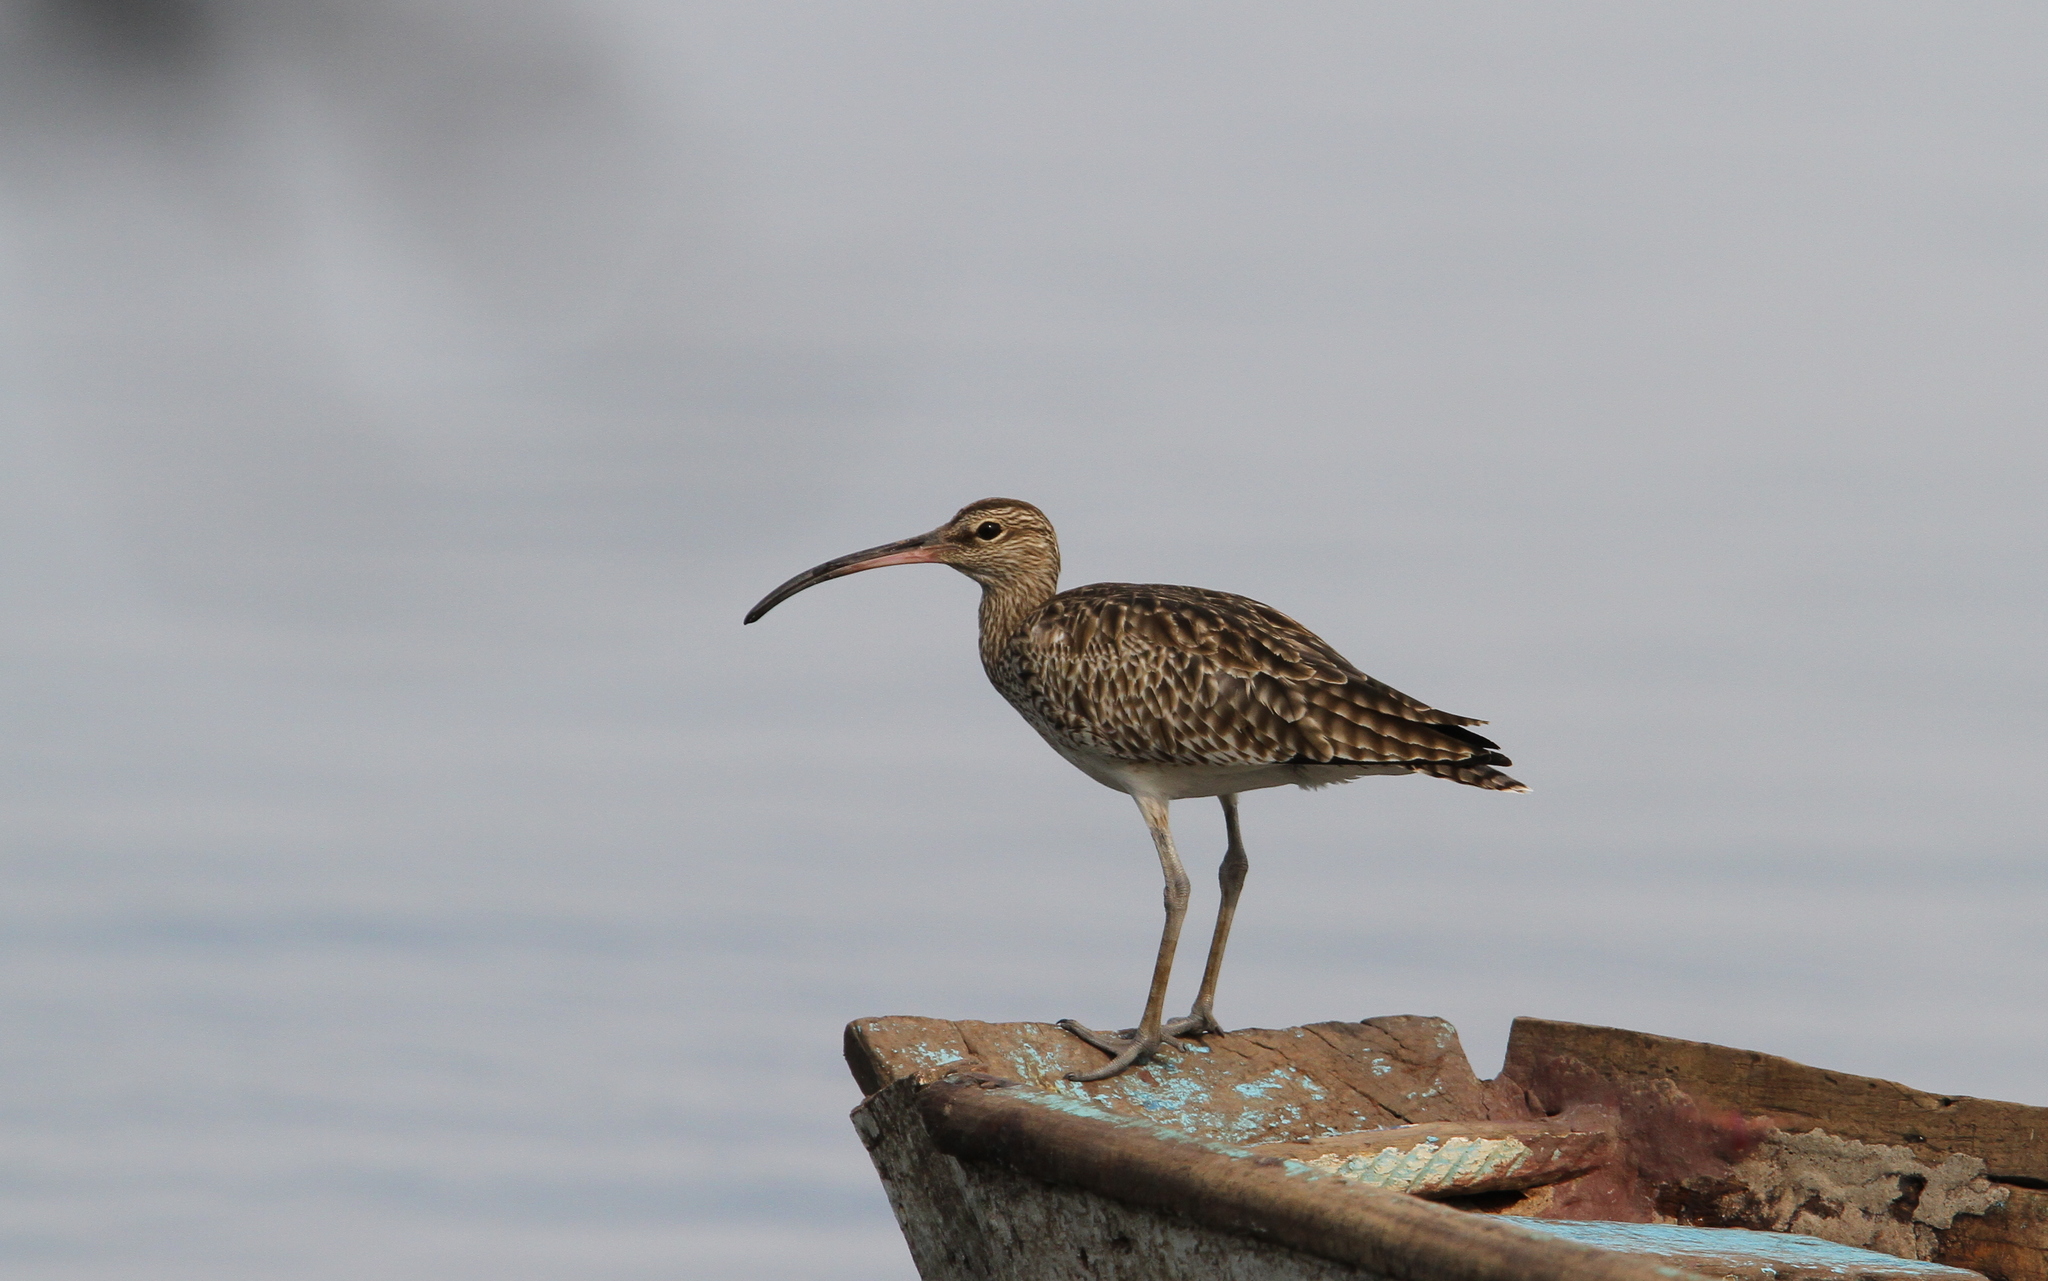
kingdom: Animalia
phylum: Chordata
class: Aves
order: Charadriiformes
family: Scolopacidae
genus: Numenius
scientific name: Numenius phaeopus
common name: Whimbrel
